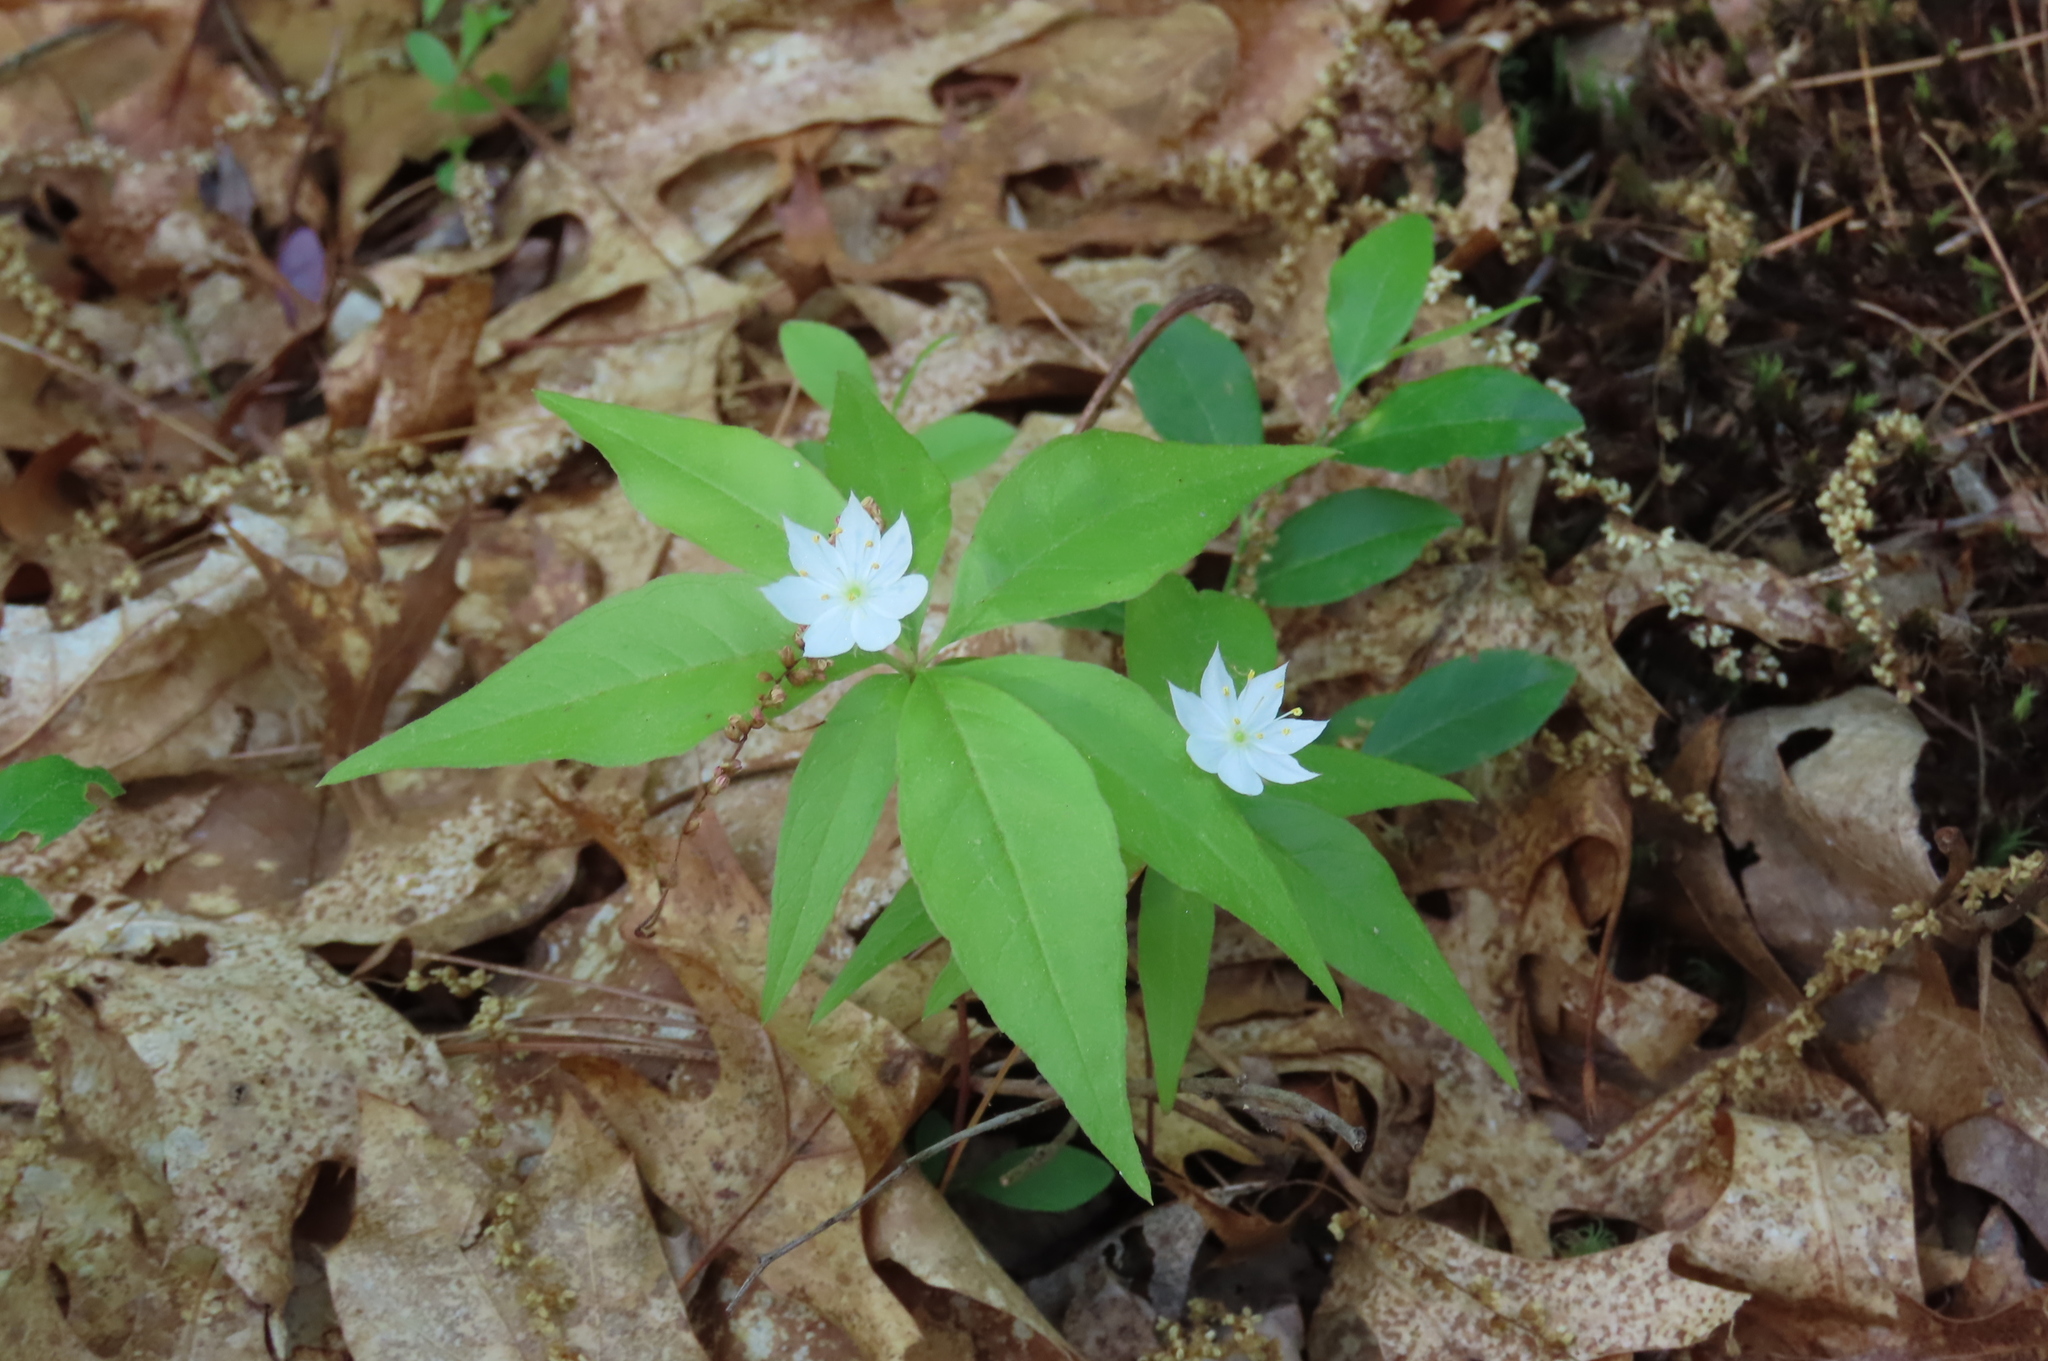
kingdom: Plantae
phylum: Tracheophyta
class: Magnoliopsida
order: Ericales
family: Primulaceae
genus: Lysimachia
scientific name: Lysimachia borealis
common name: American starflower
